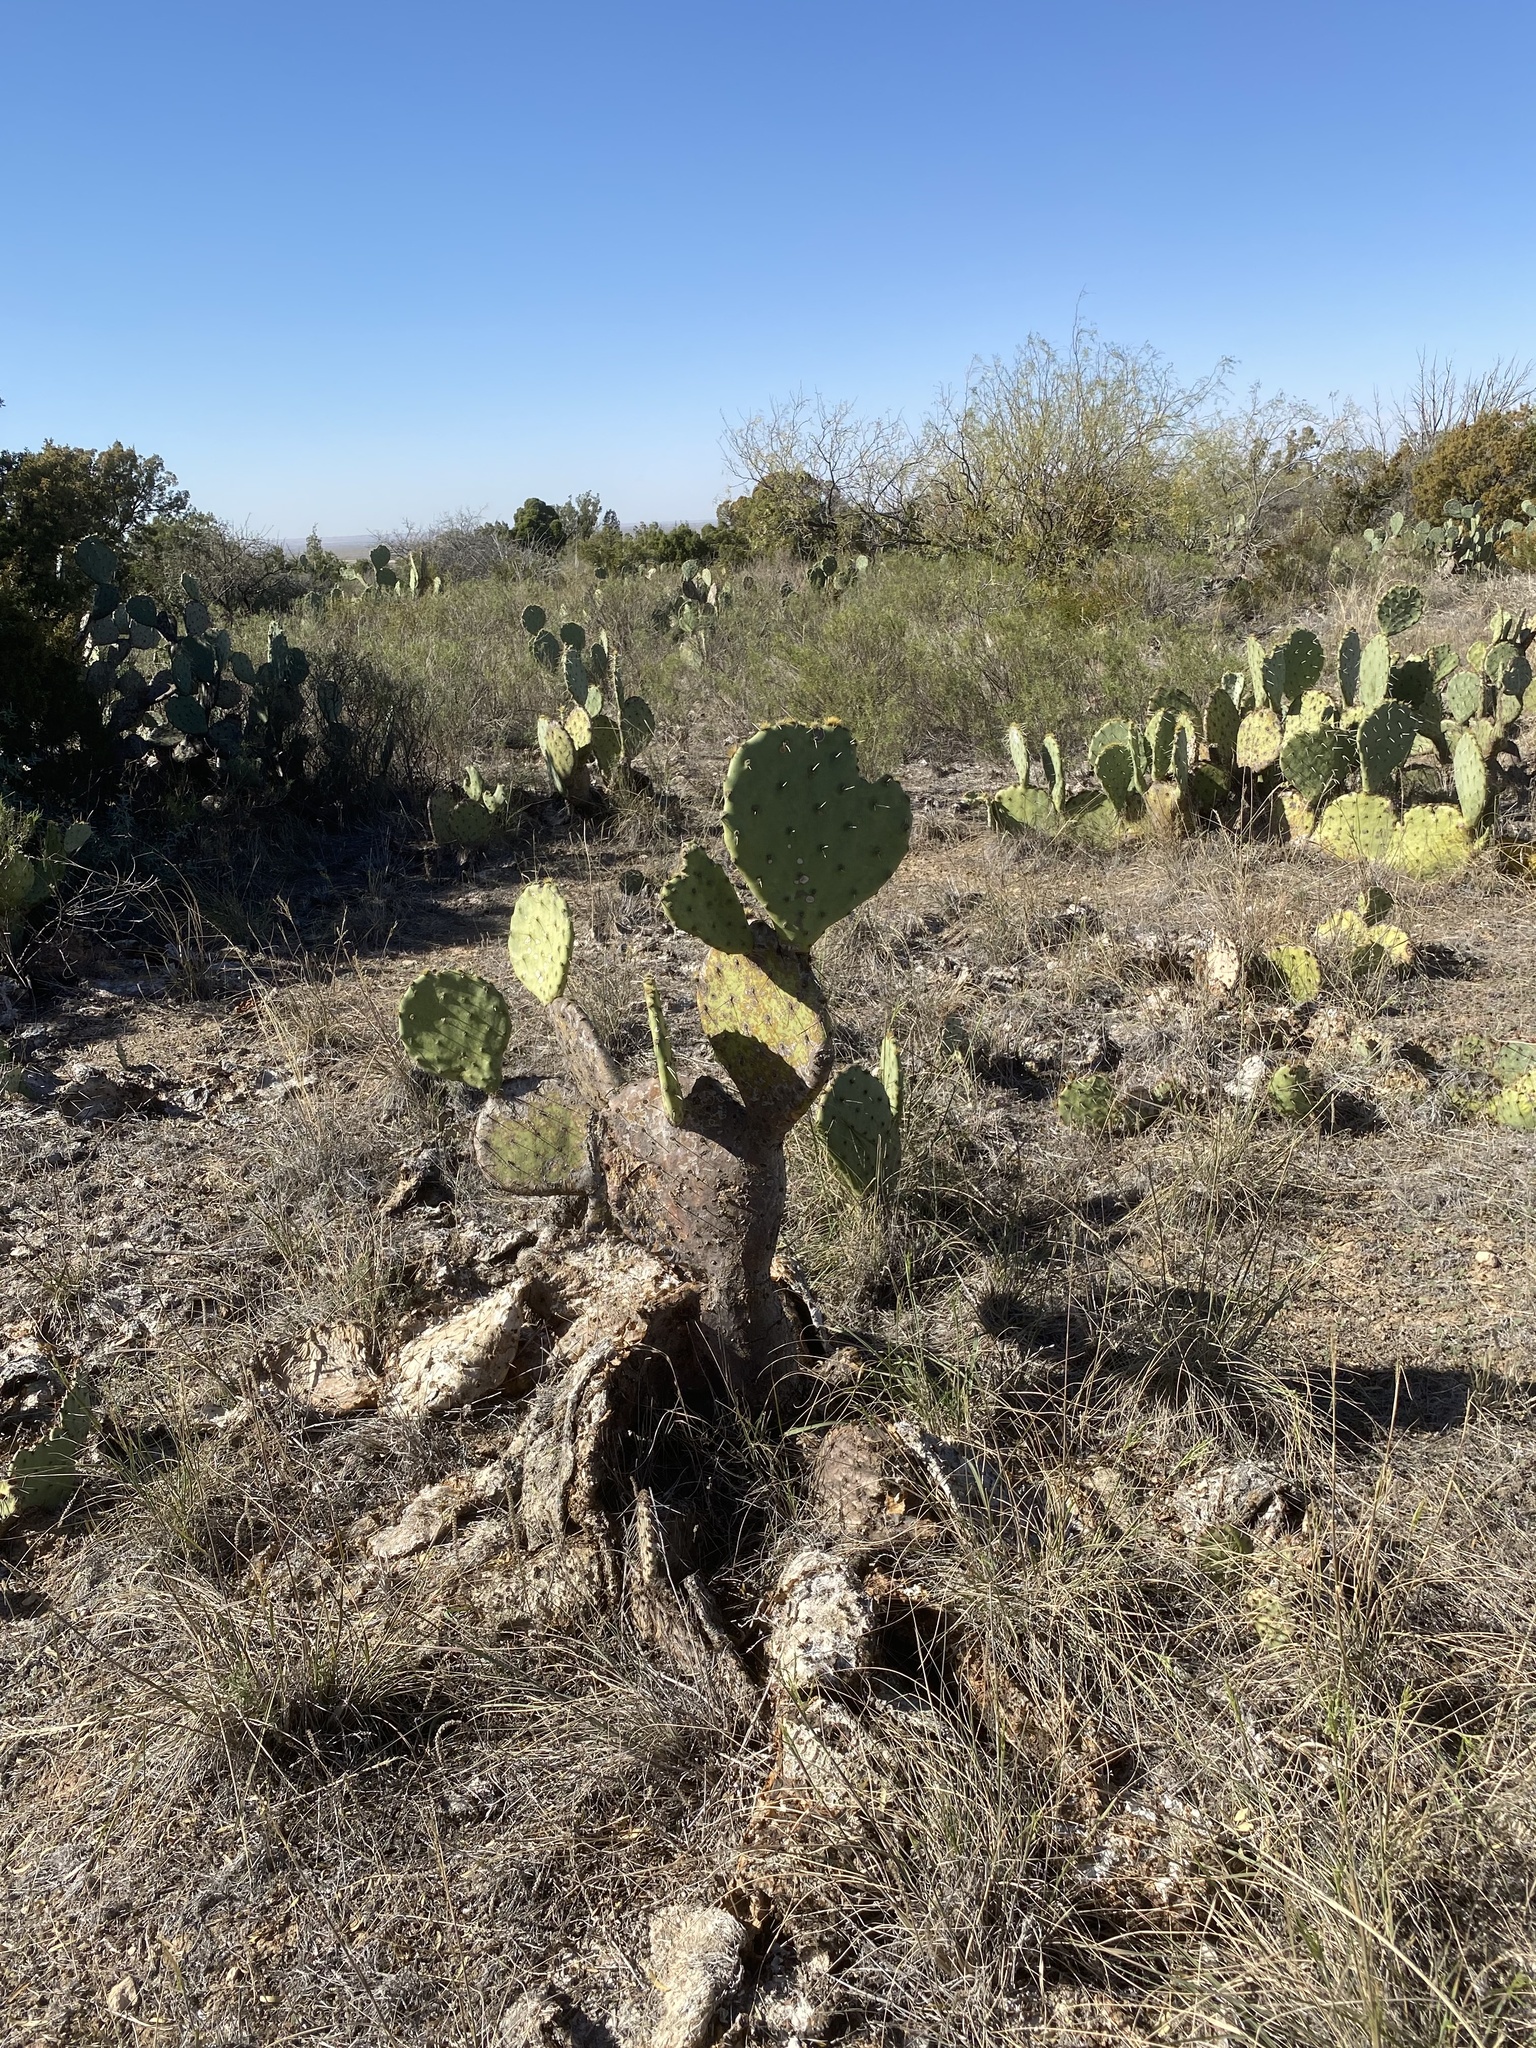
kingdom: Plantae
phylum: Tracheophyta
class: Magnoliopsida
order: Caryophyllales
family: Cactaceae
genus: Opuntia
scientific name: Opuntia engelmannii
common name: Cactus-apple
